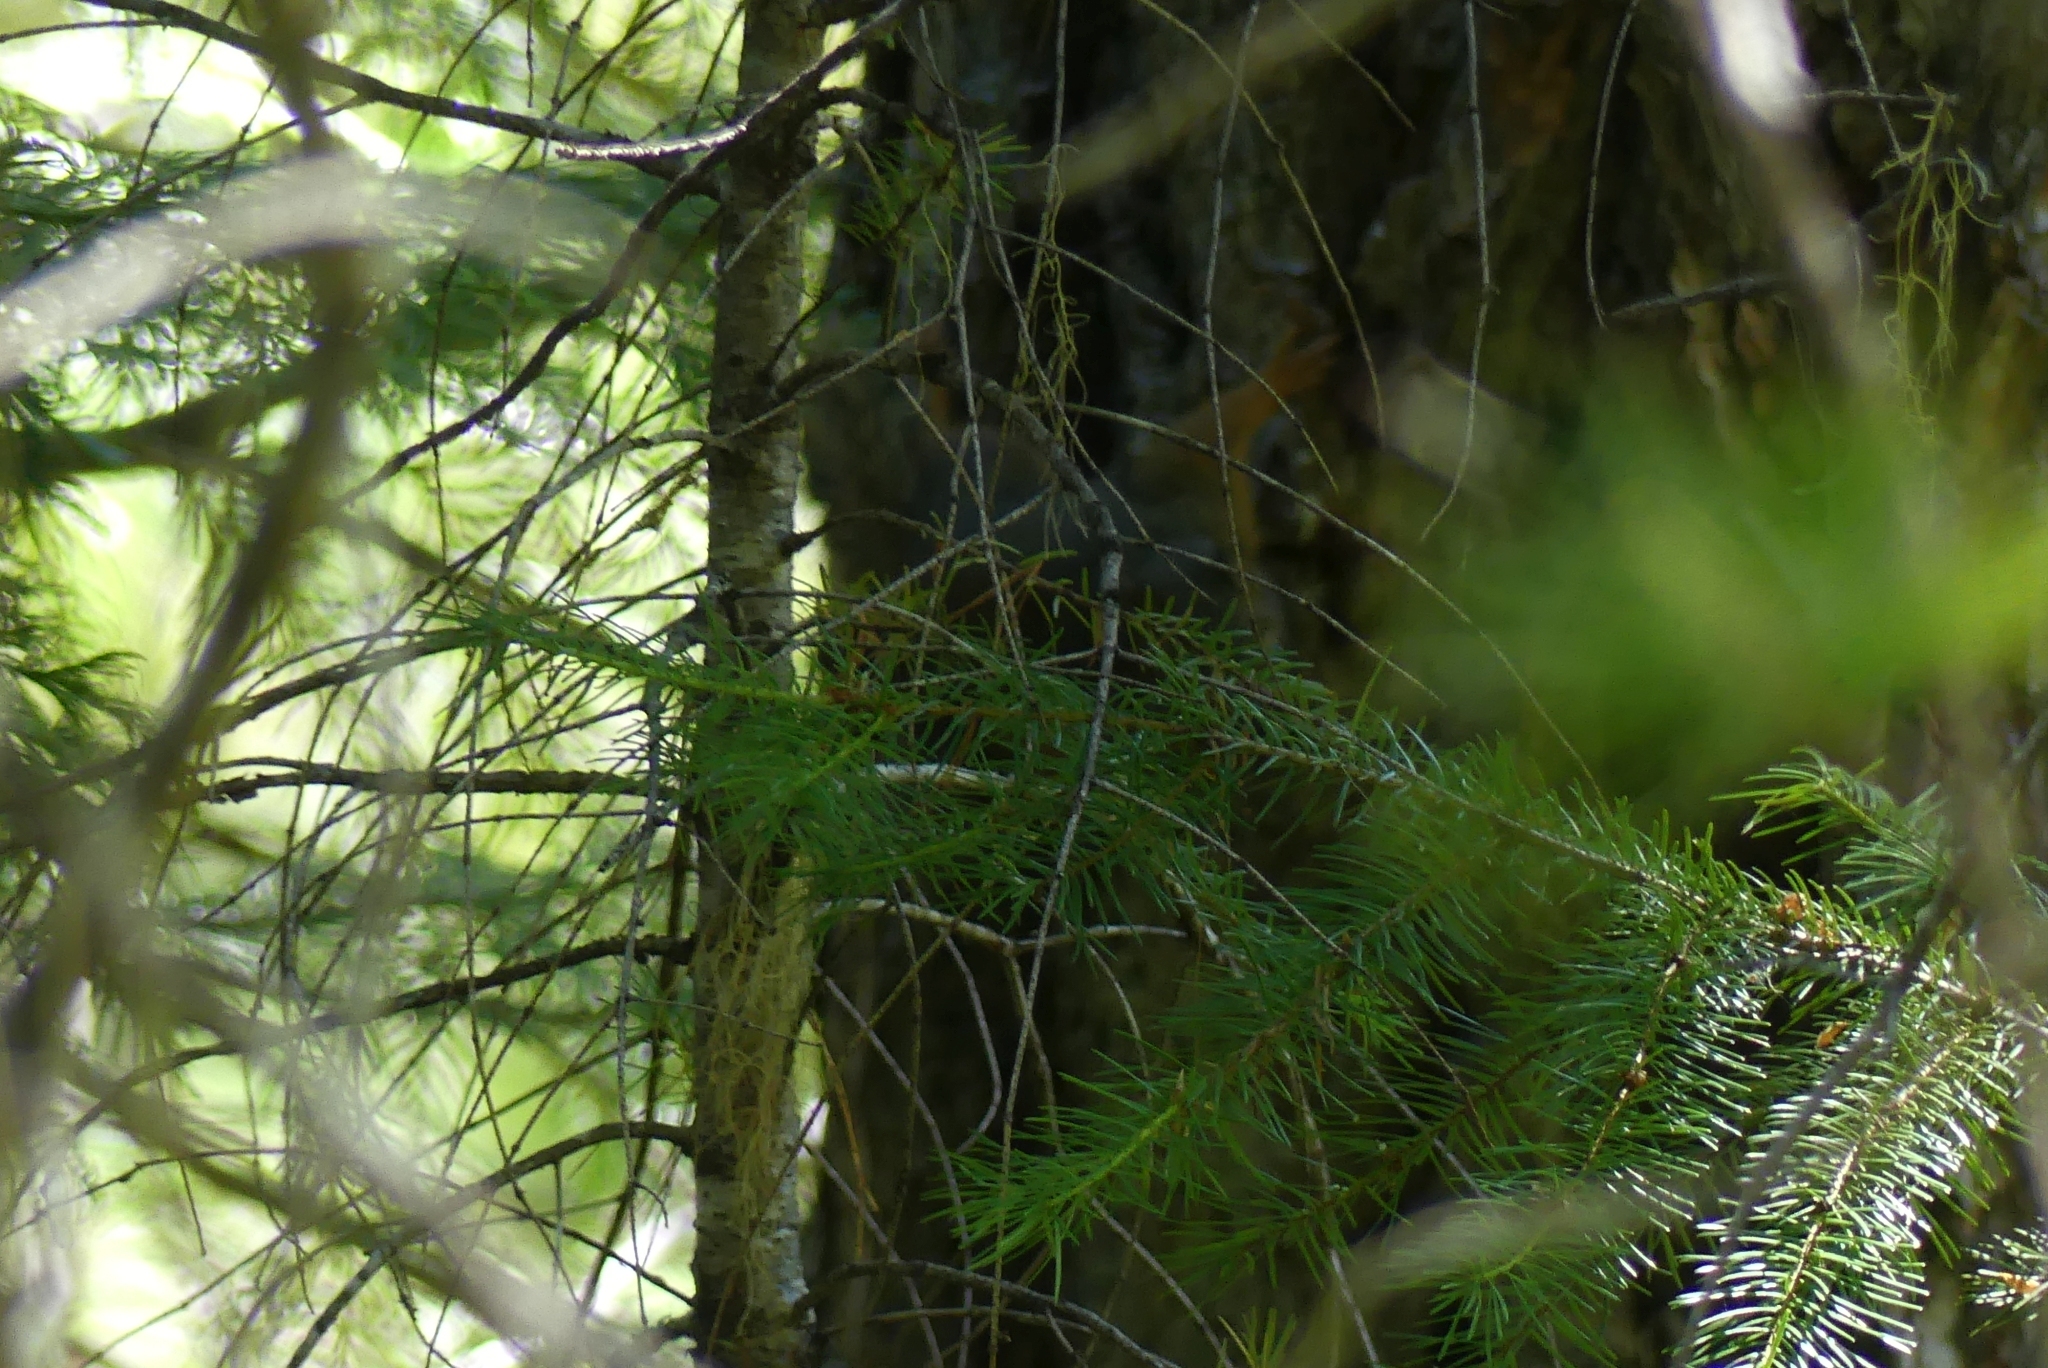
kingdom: Animalia
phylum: Chordata
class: Mammalia
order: Rodentia
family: Sciuridae
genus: Tamiasciurus
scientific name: Tamiasciurus douglasii
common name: Douglas's squirrel
